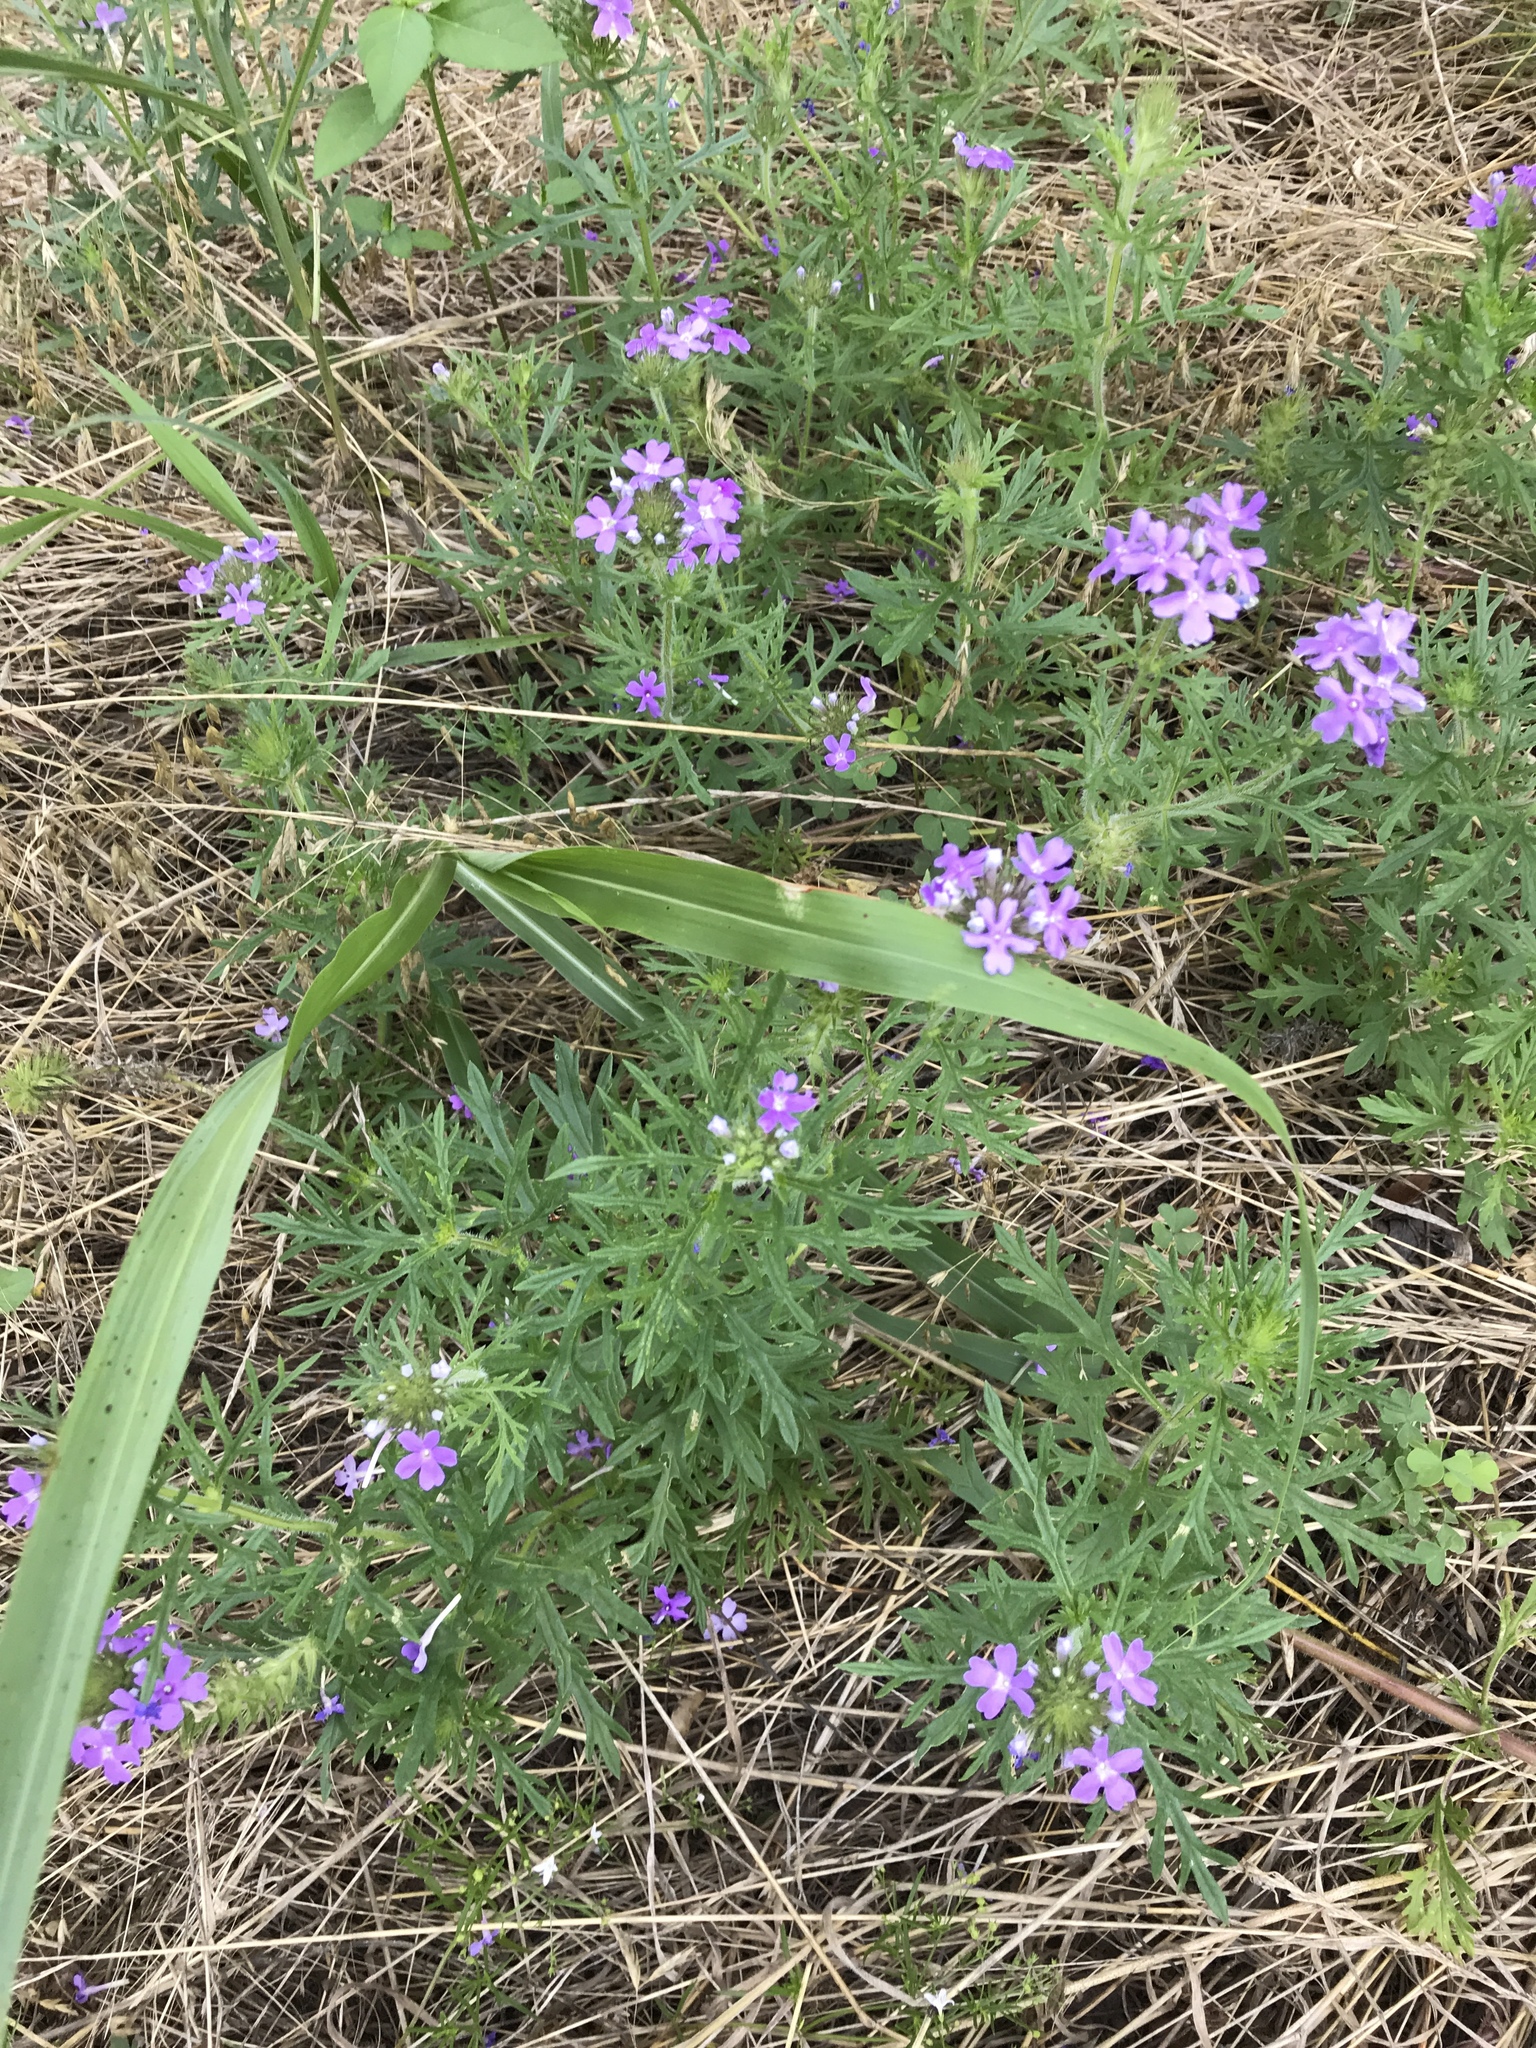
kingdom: Plantae
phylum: Tracheophyta
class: Magnoliopsida
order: Lamiales
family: Verbenaceae
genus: Verbena
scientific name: Verbena bipinnatifida
